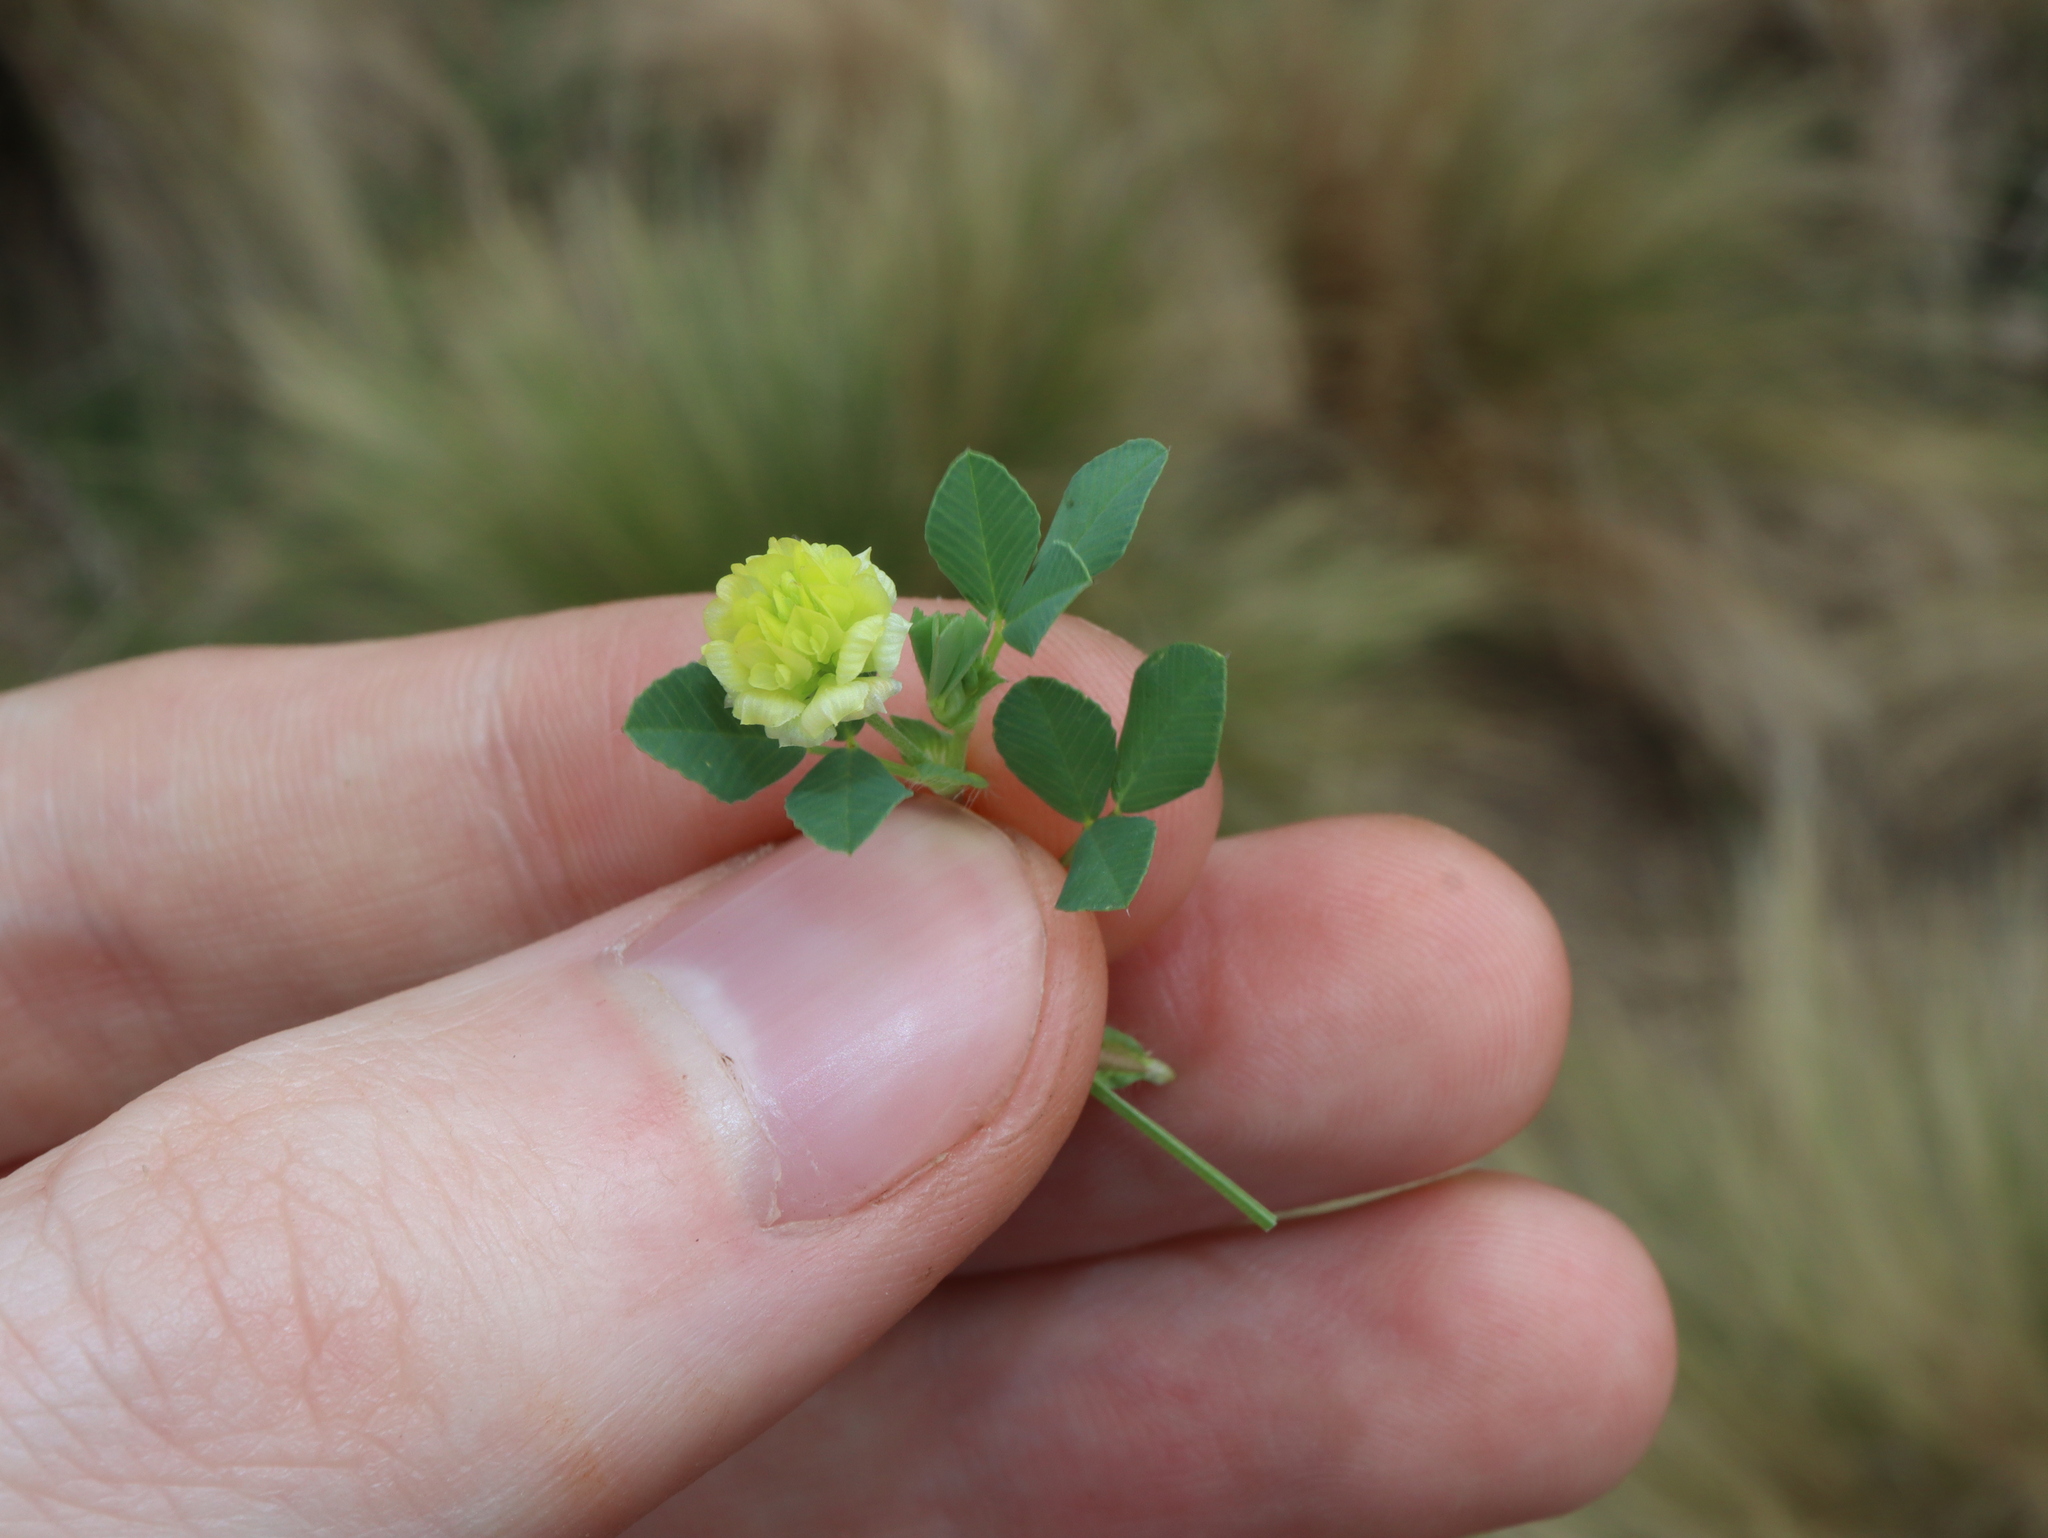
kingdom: Plantae
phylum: Tracheophyta
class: Magnoliopsida
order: Fabales
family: Fabaceae
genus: Trifolium
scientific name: Trifolium campestre
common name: Field clover
